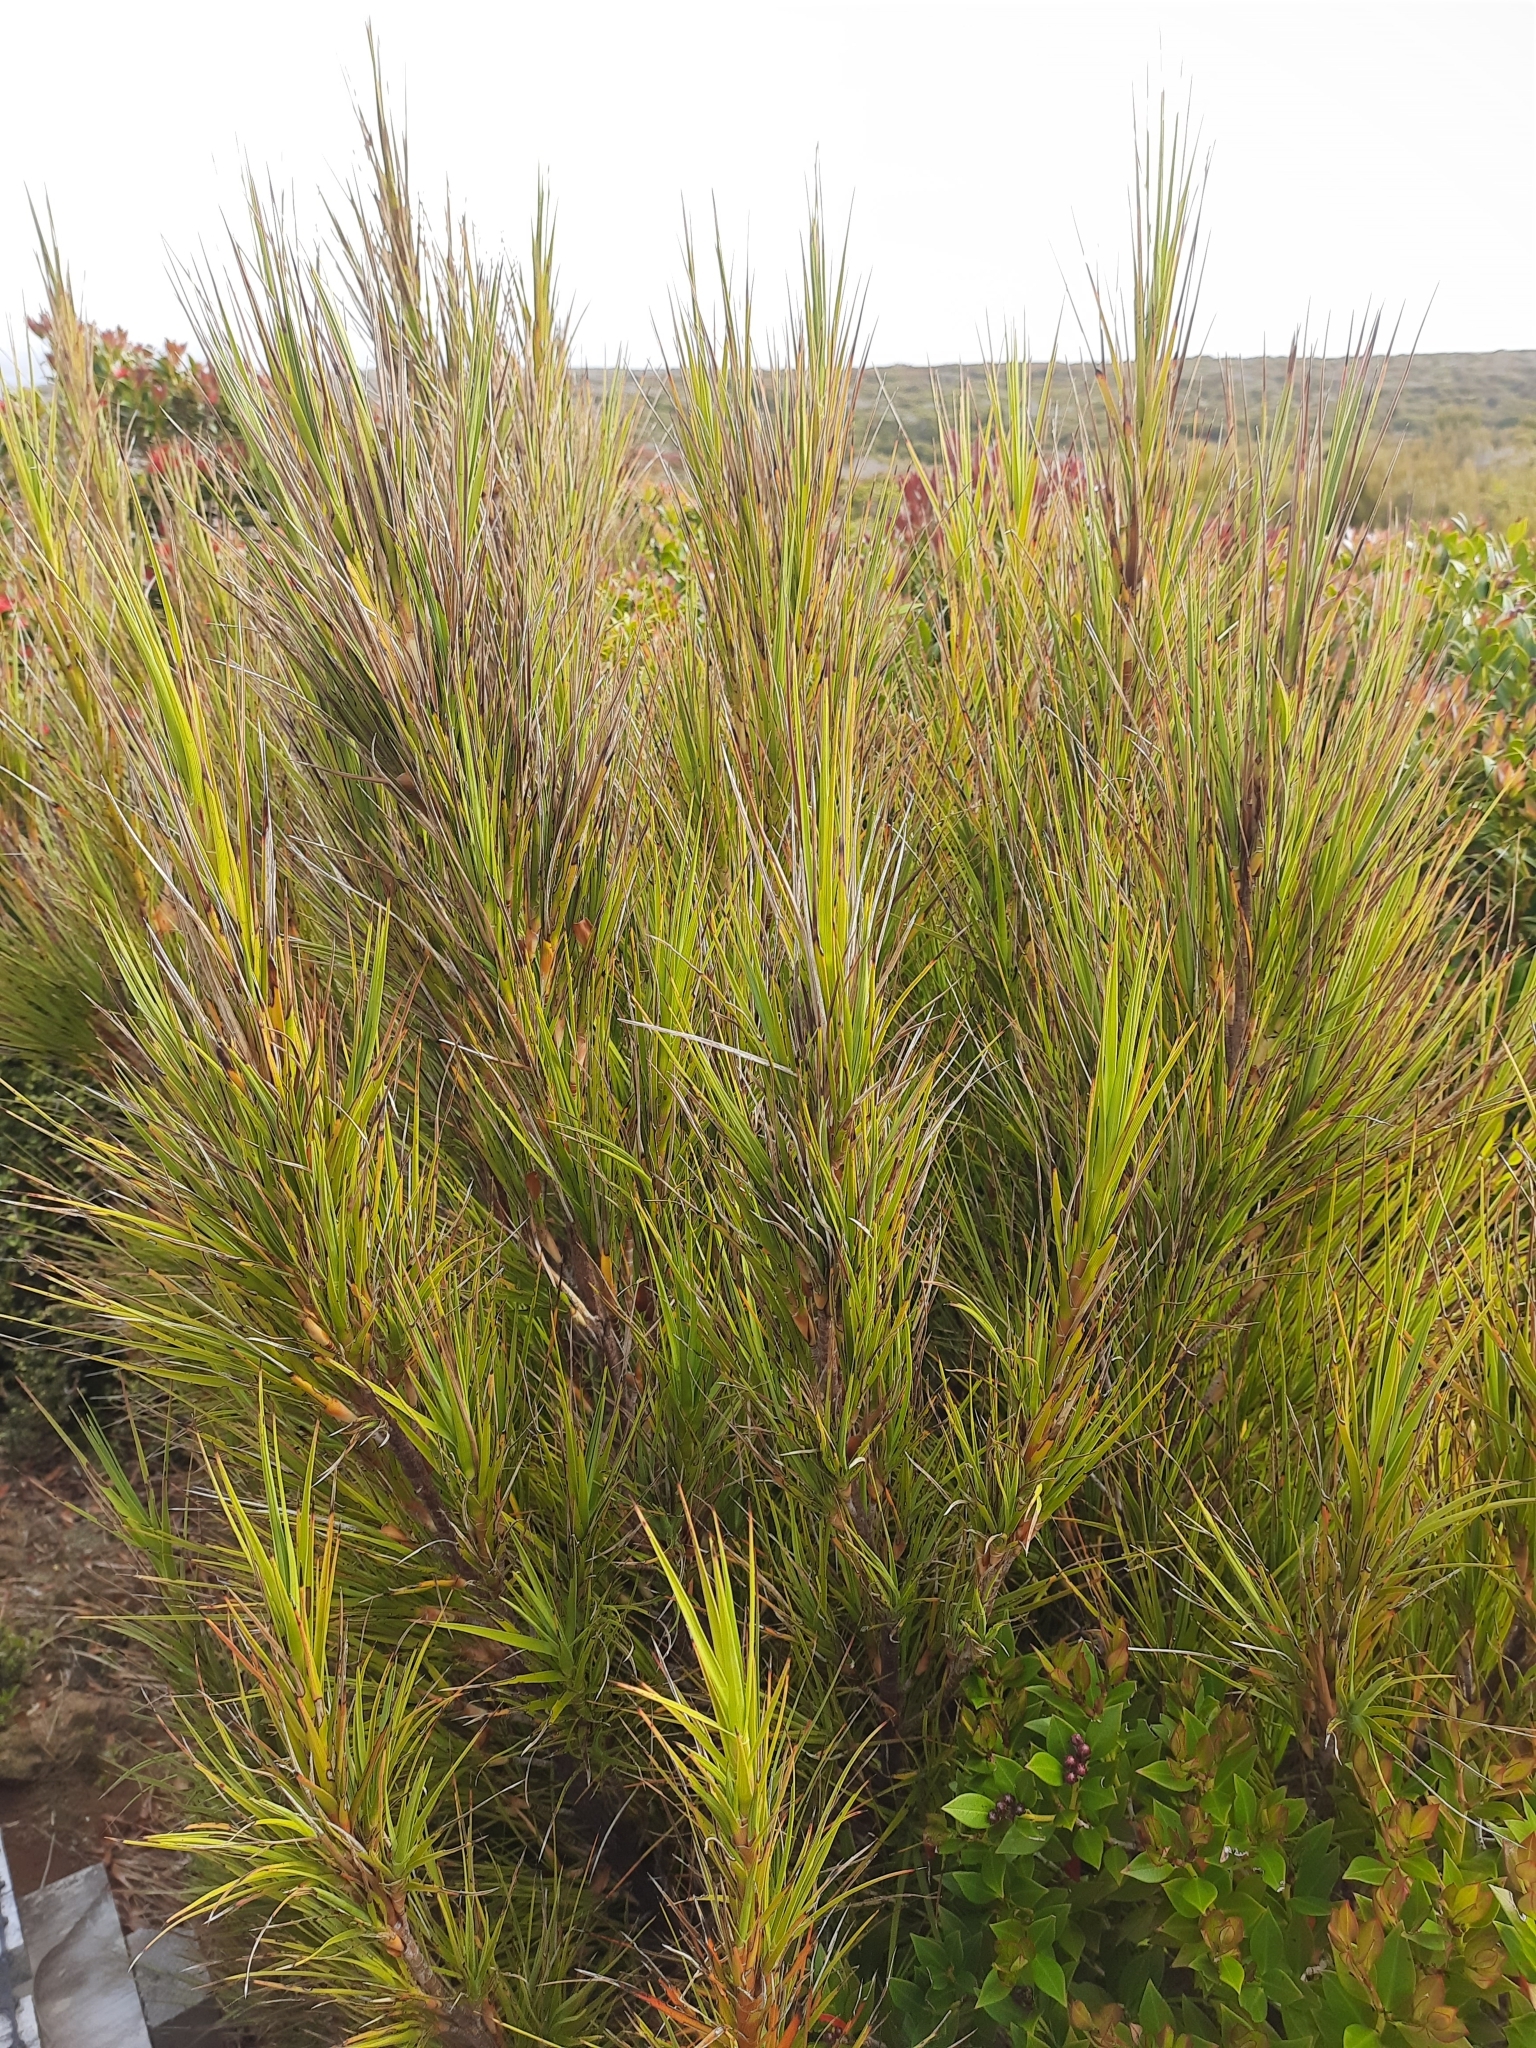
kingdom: Plantae
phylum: Tracheophyta
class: Magnoliopsida
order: Ericales
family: Ericaceae
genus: Dracophyllum
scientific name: Dracophyllum longifolium
